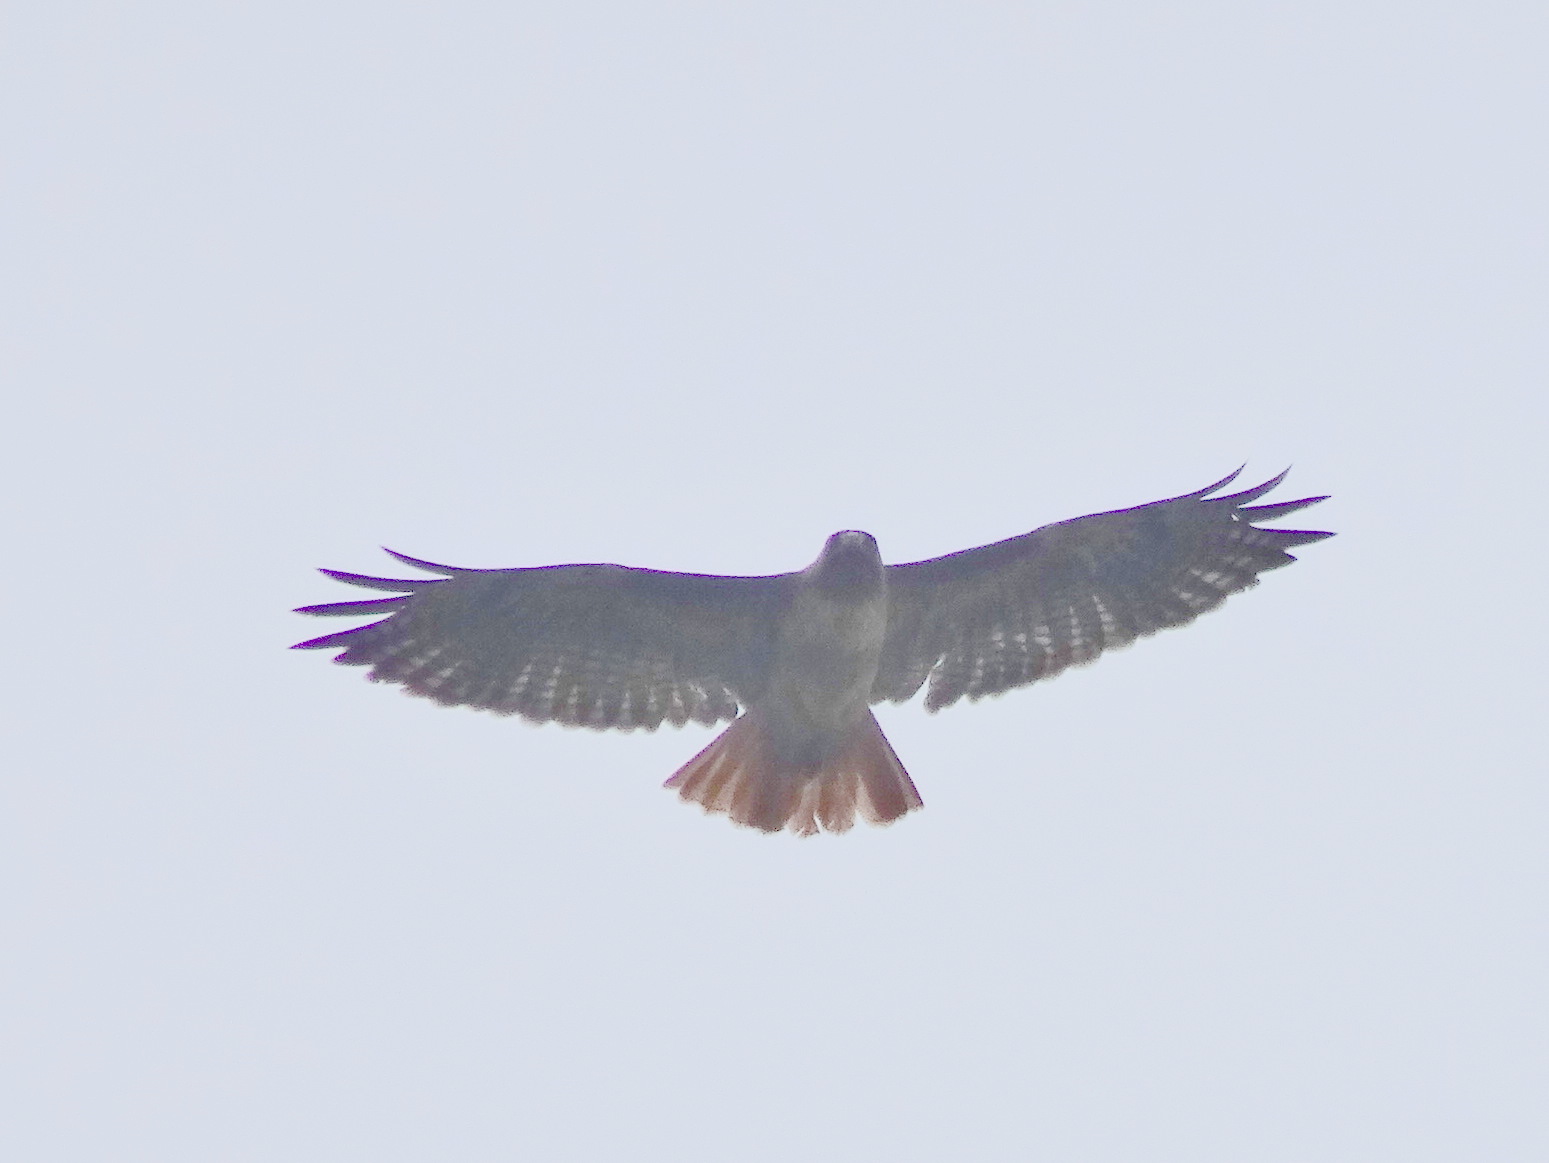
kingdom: Animalia
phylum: Chordata
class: Aves
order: Accipitriformes
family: Accipitridae
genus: Buteo
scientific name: Buteo jamaicensis
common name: Red-tailed hawk
